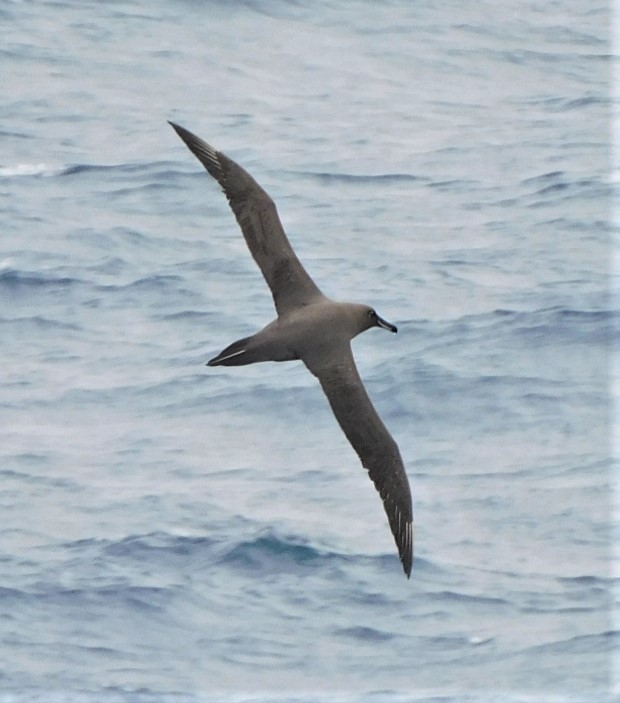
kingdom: Animalia
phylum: Chordata
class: Aves
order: Procellariiformes
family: Diomedeidae
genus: Phoebetria
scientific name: Phoebetria fusca
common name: Sooty albatross
